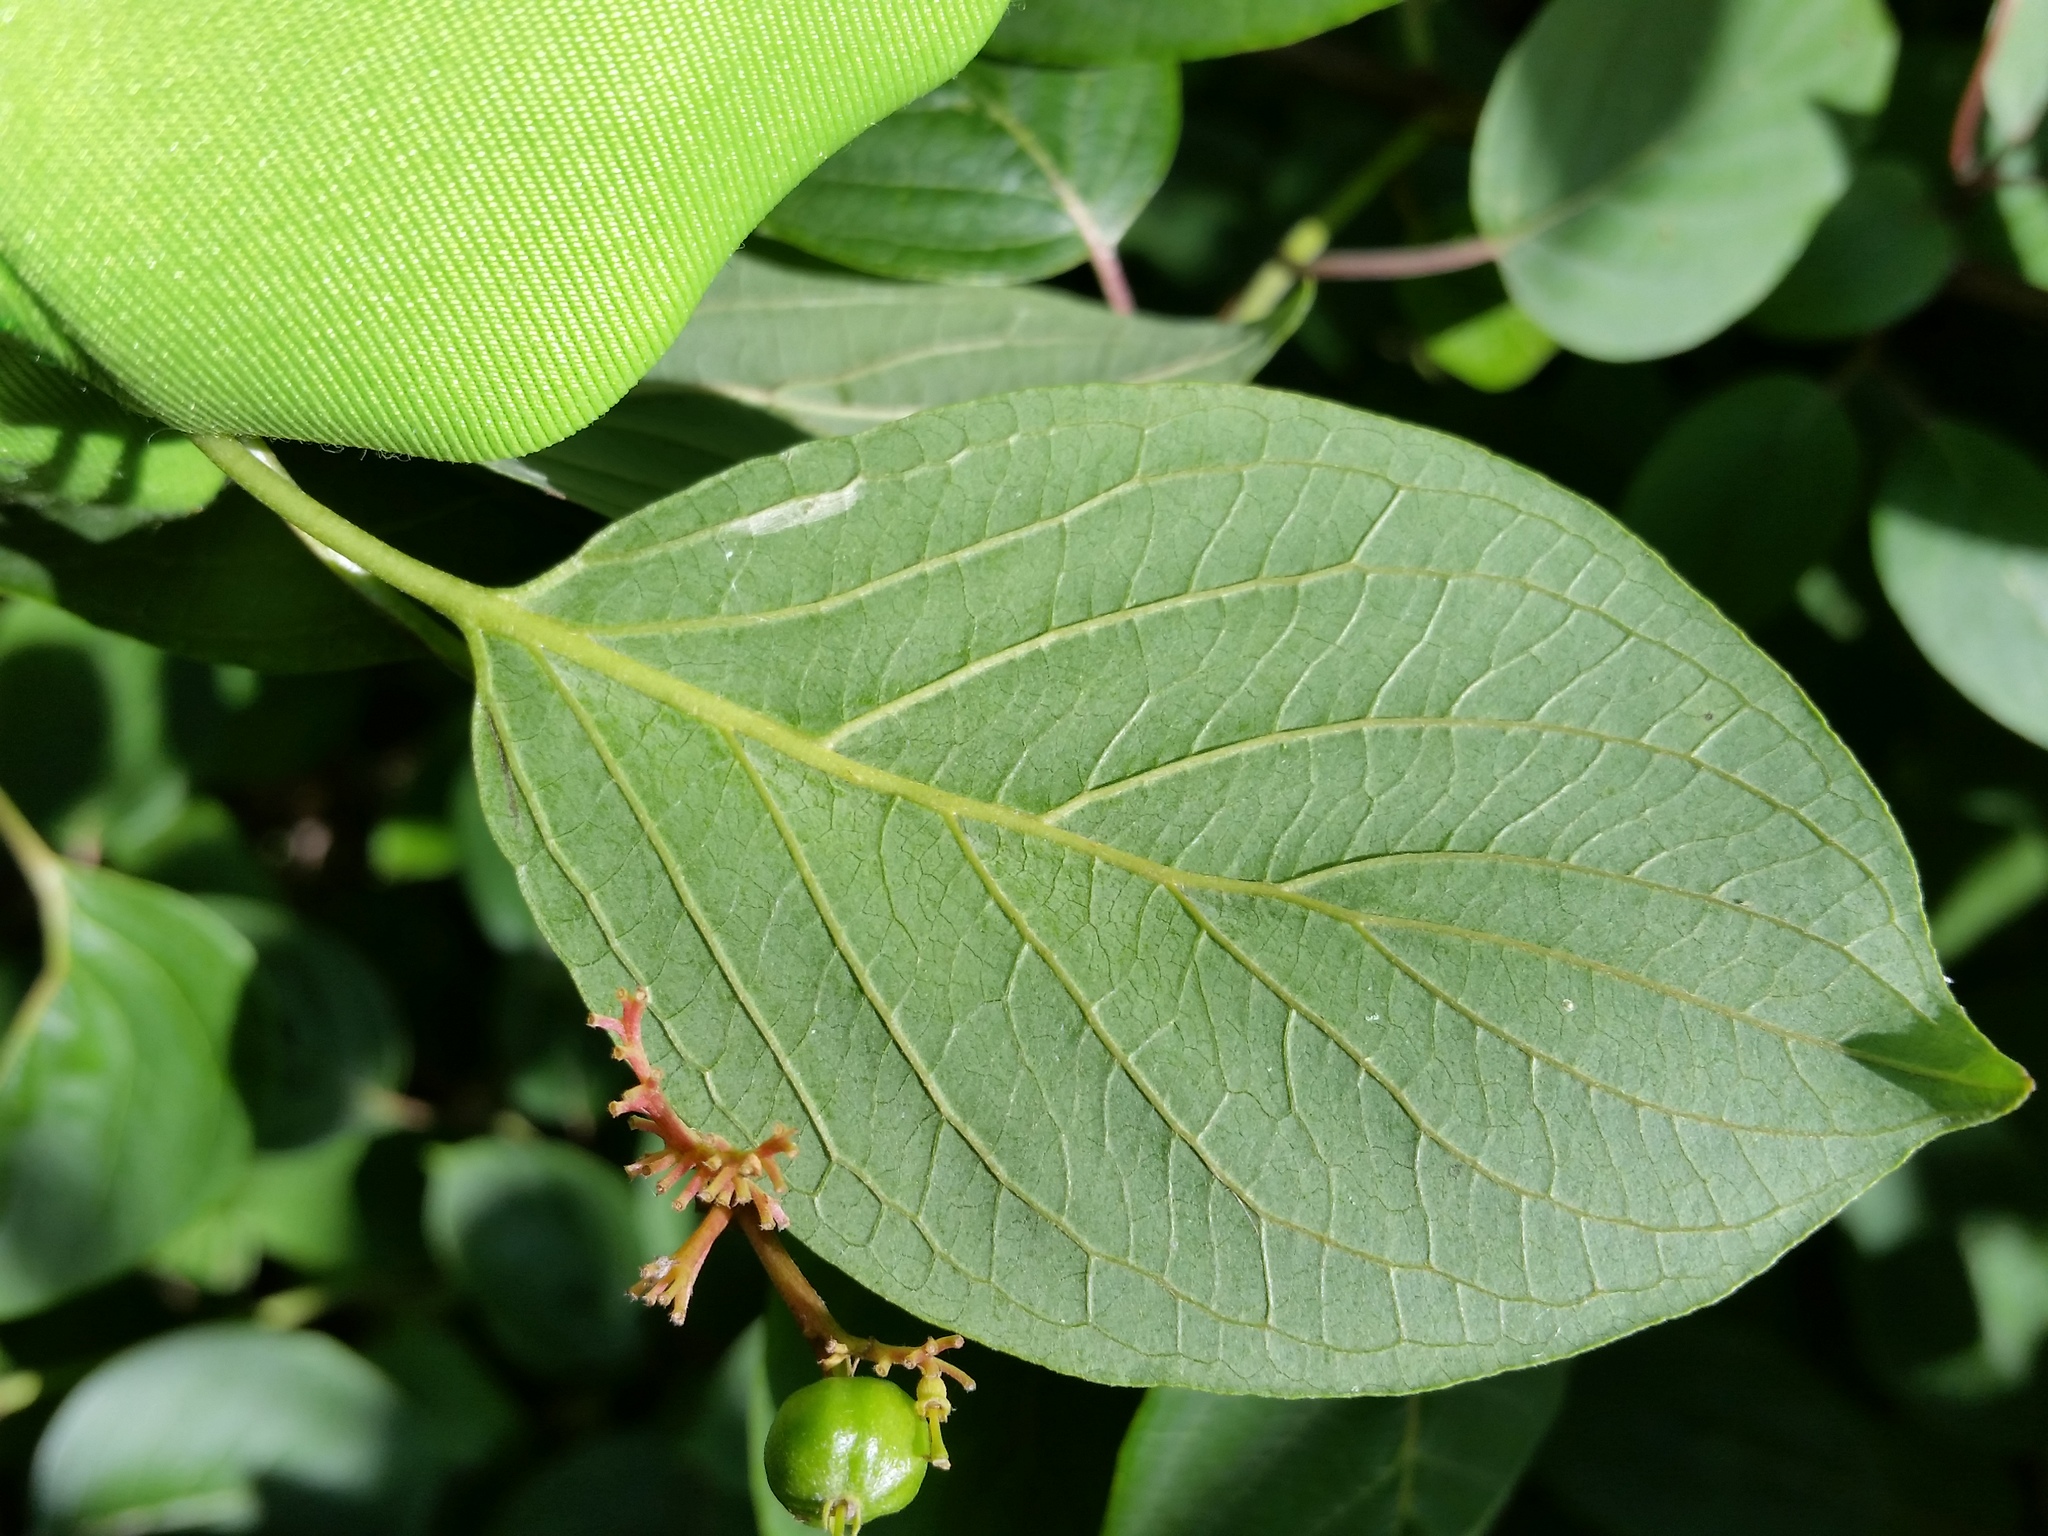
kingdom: Plantae
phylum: Tracheophyta
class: Magnoliopsida
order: Cornales
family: Cornaceae
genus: Cornus
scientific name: Cornus amomum
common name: Silky dogwood
